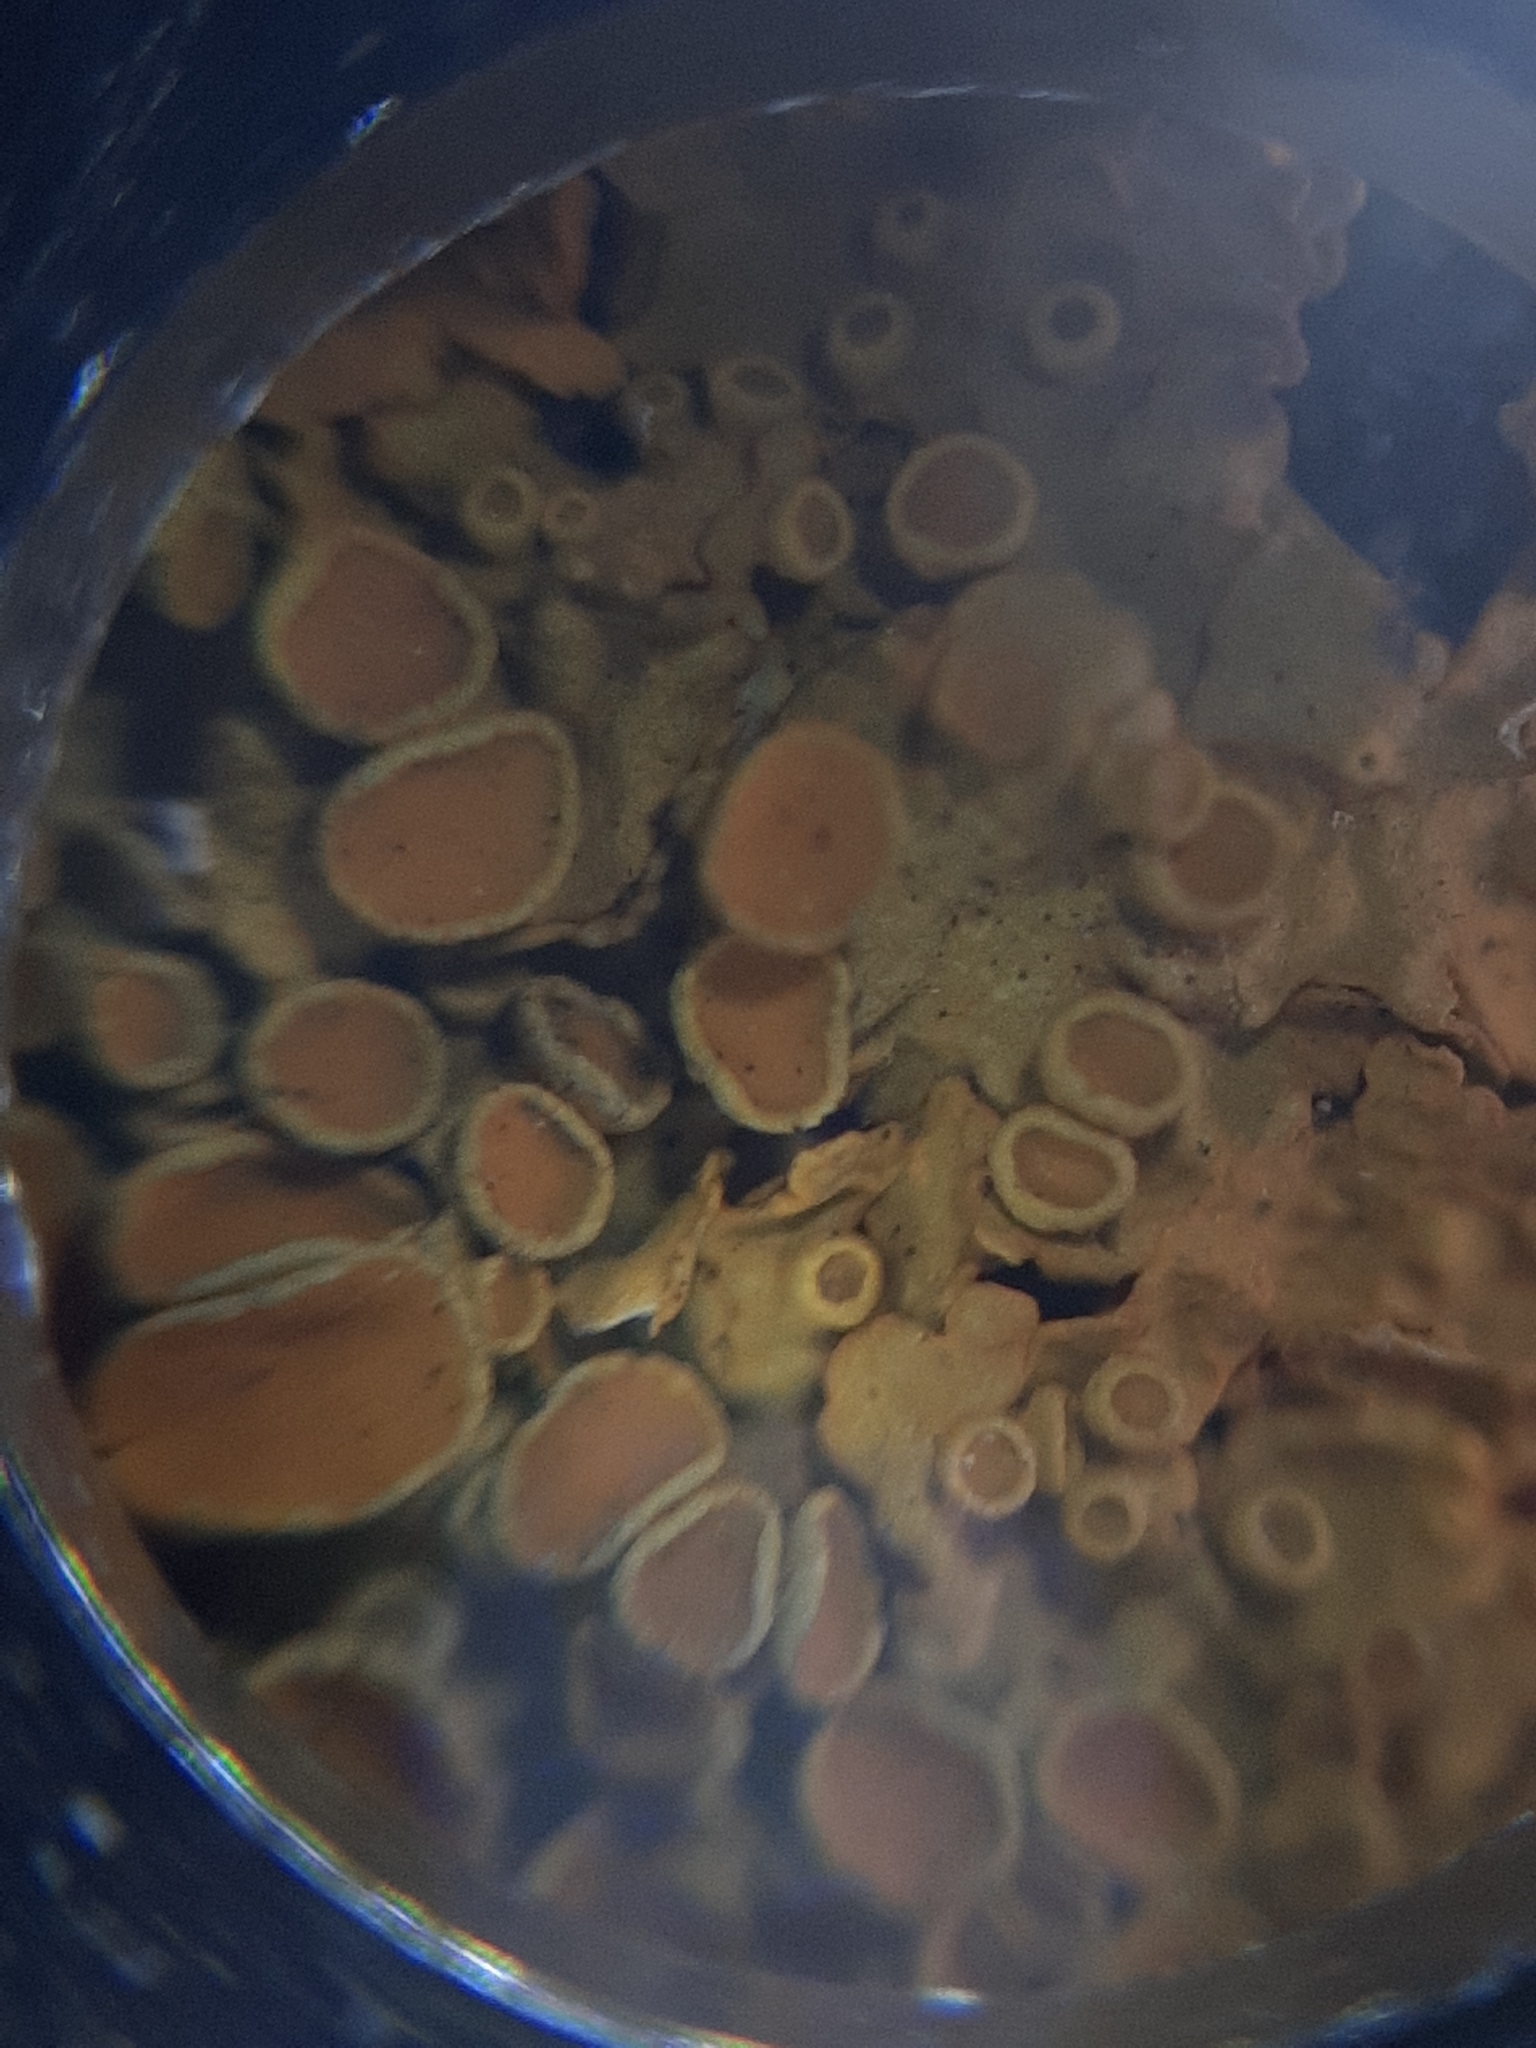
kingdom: Fungi
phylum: Ascomycota
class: Lecanoromycetes
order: Teloschistales
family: Teloschistaceae
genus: Xanthoria
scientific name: Xanthoria parietina
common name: Common orange lichen
